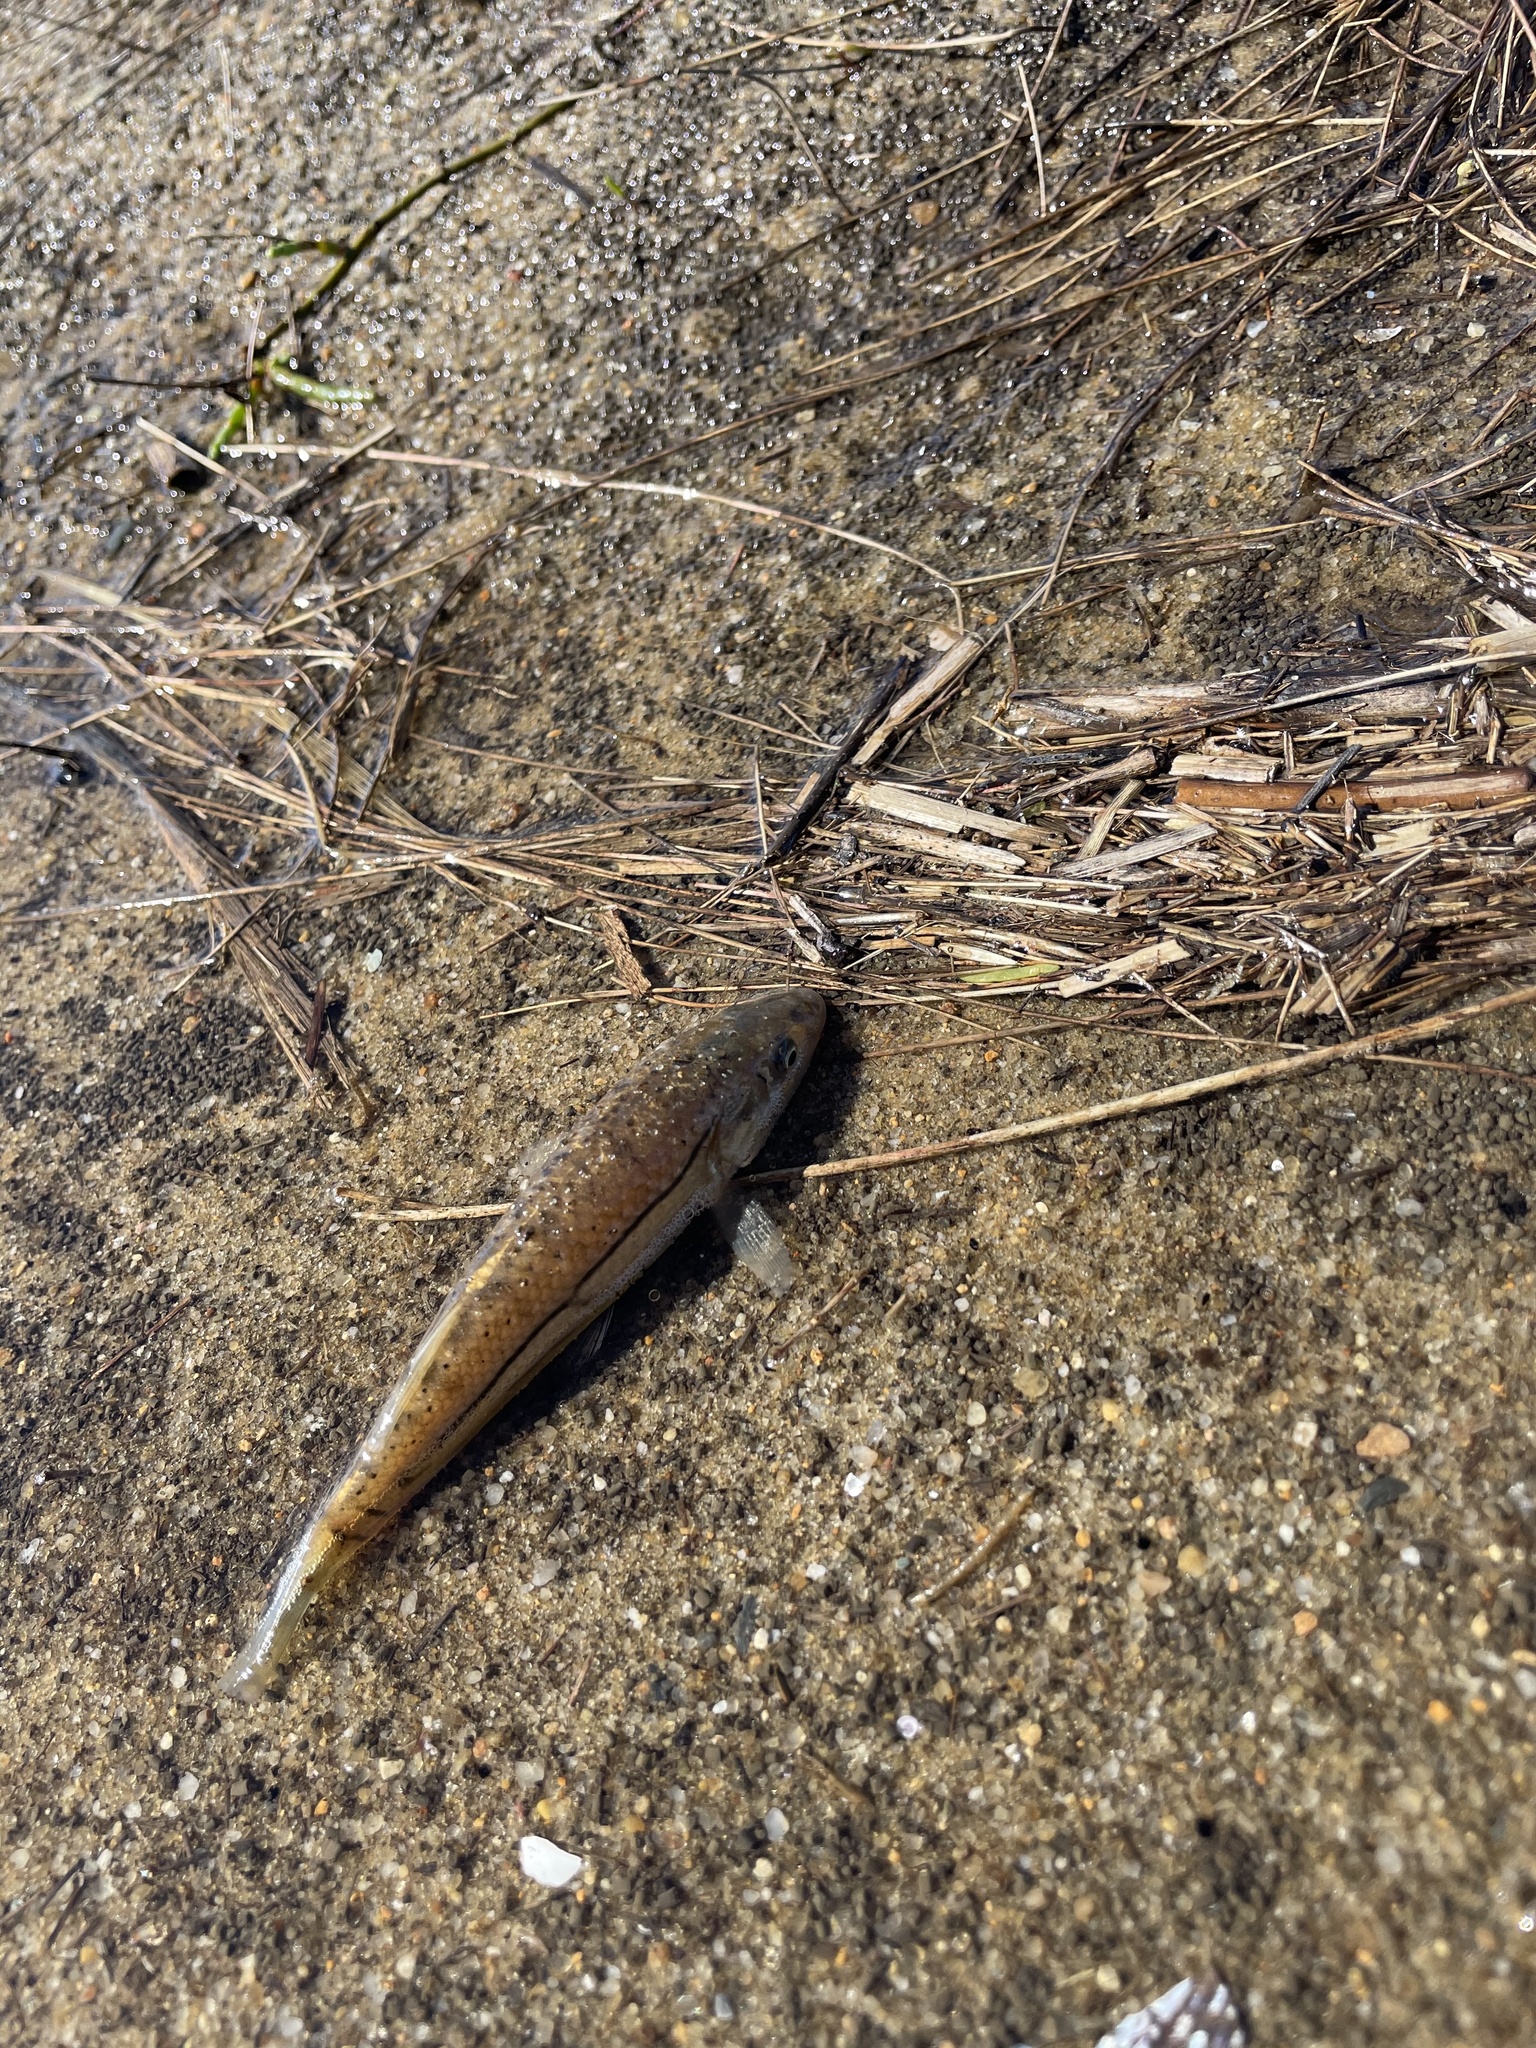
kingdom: Animalia
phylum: Chordata
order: Cyprinodontiformes
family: Fundulidae
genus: Fundulus
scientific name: Fundulus majalis
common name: Striped killifish
